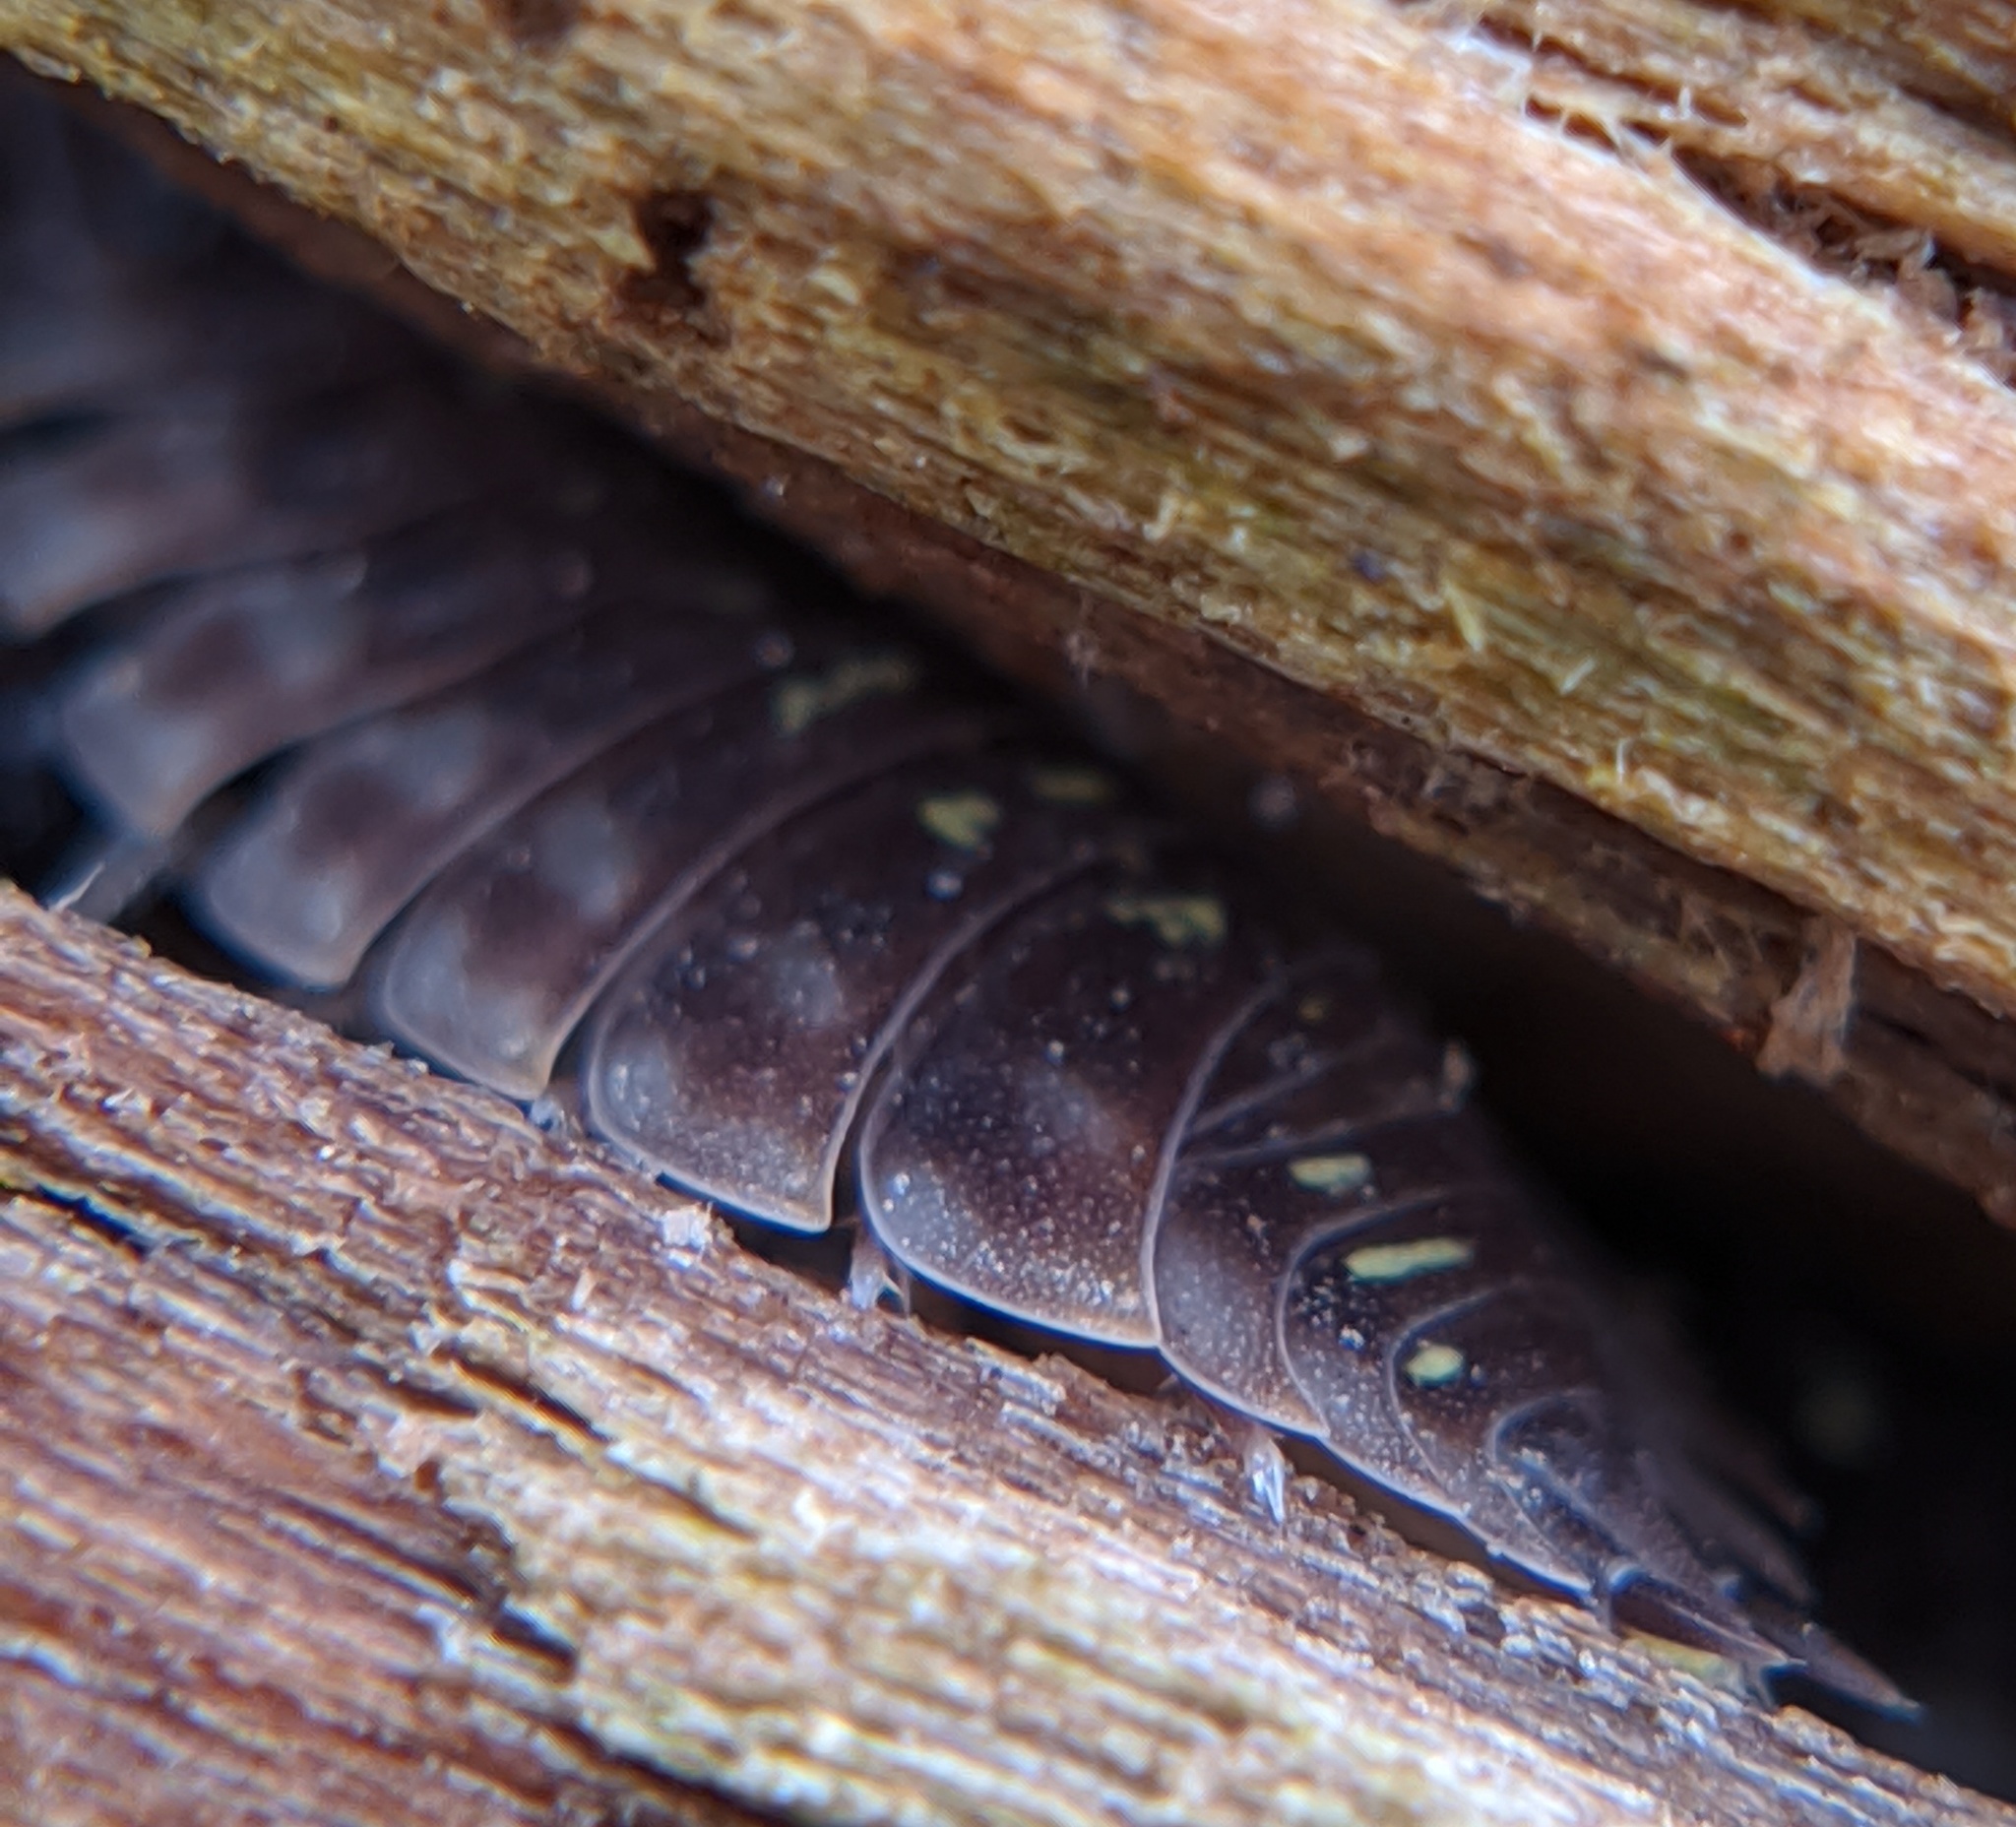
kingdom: Animalia
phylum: Arthropoda
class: Malacostraca
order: Isopoda
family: Oniscidae
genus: Oniscus
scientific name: Oniscus asellus
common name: Common shiny woodlouse
